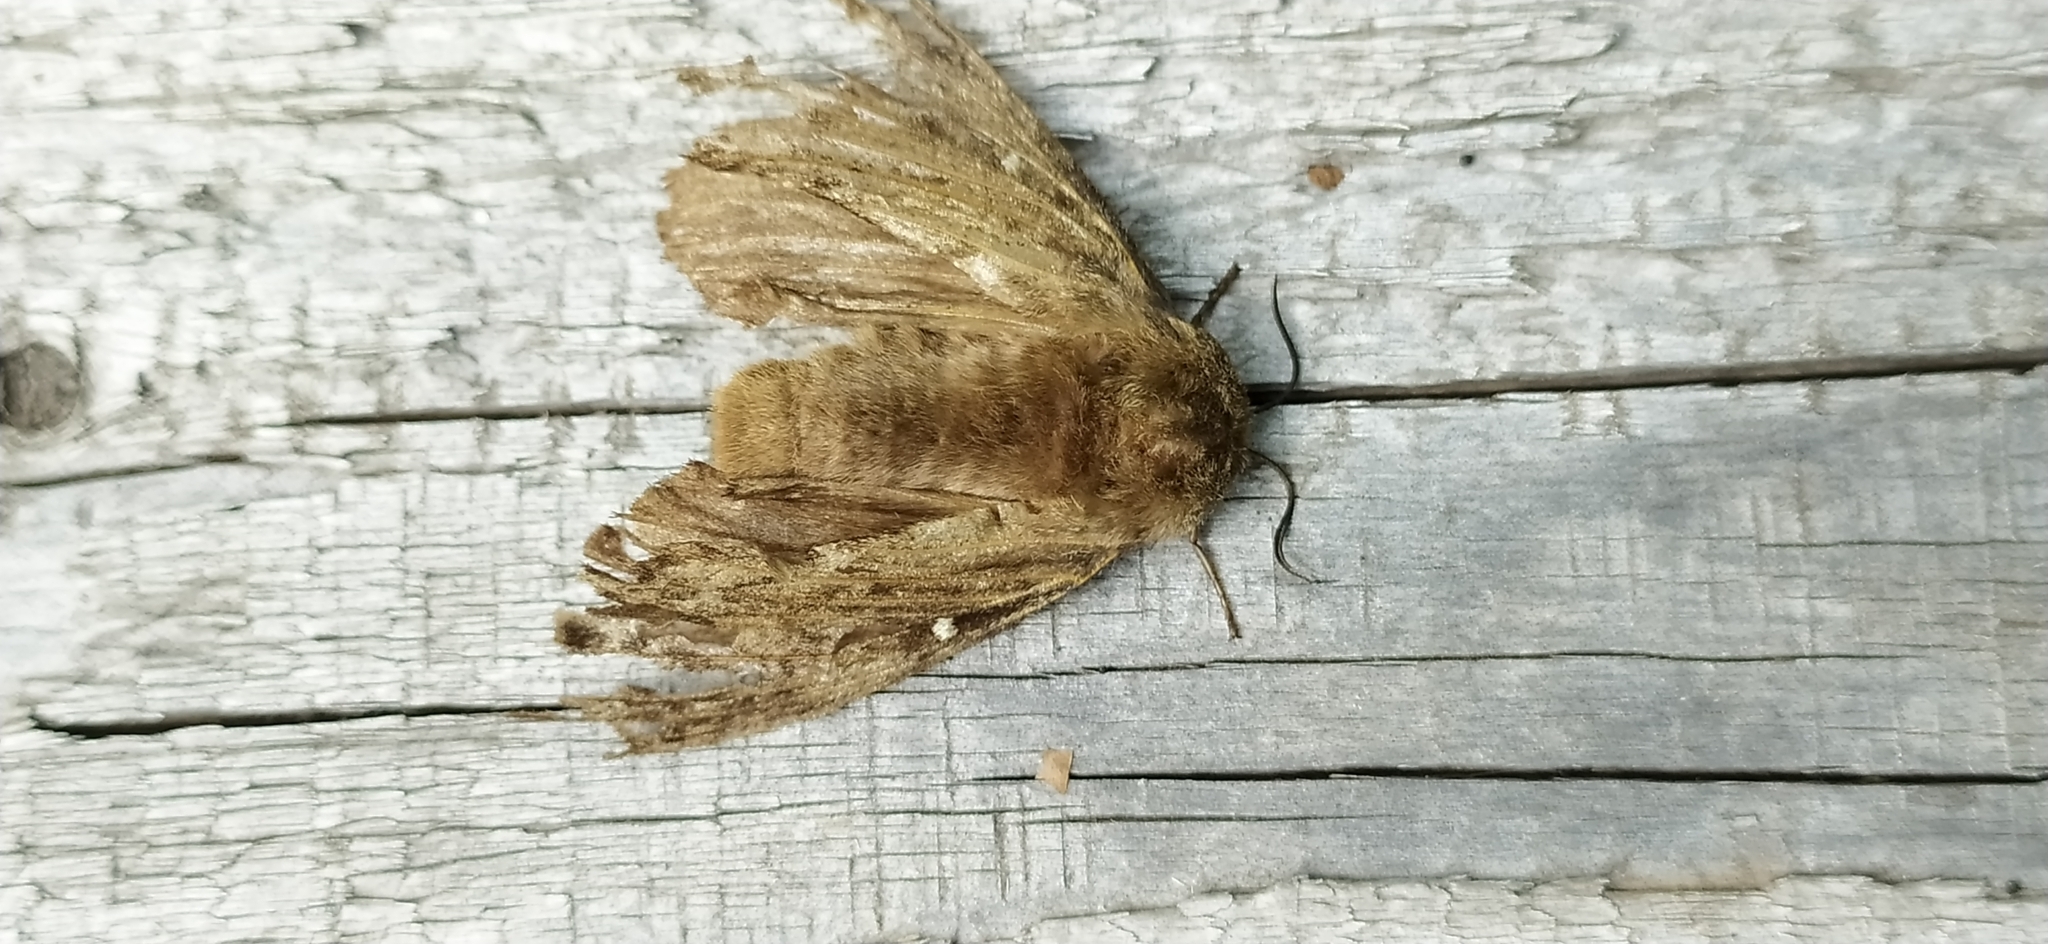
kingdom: Animalia
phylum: Arthropoda
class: Insecta
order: Lepidoptera
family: Lasiocampidae
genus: Dendrolimus
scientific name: Dendrolimus pini
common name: Pine-tree lappet
